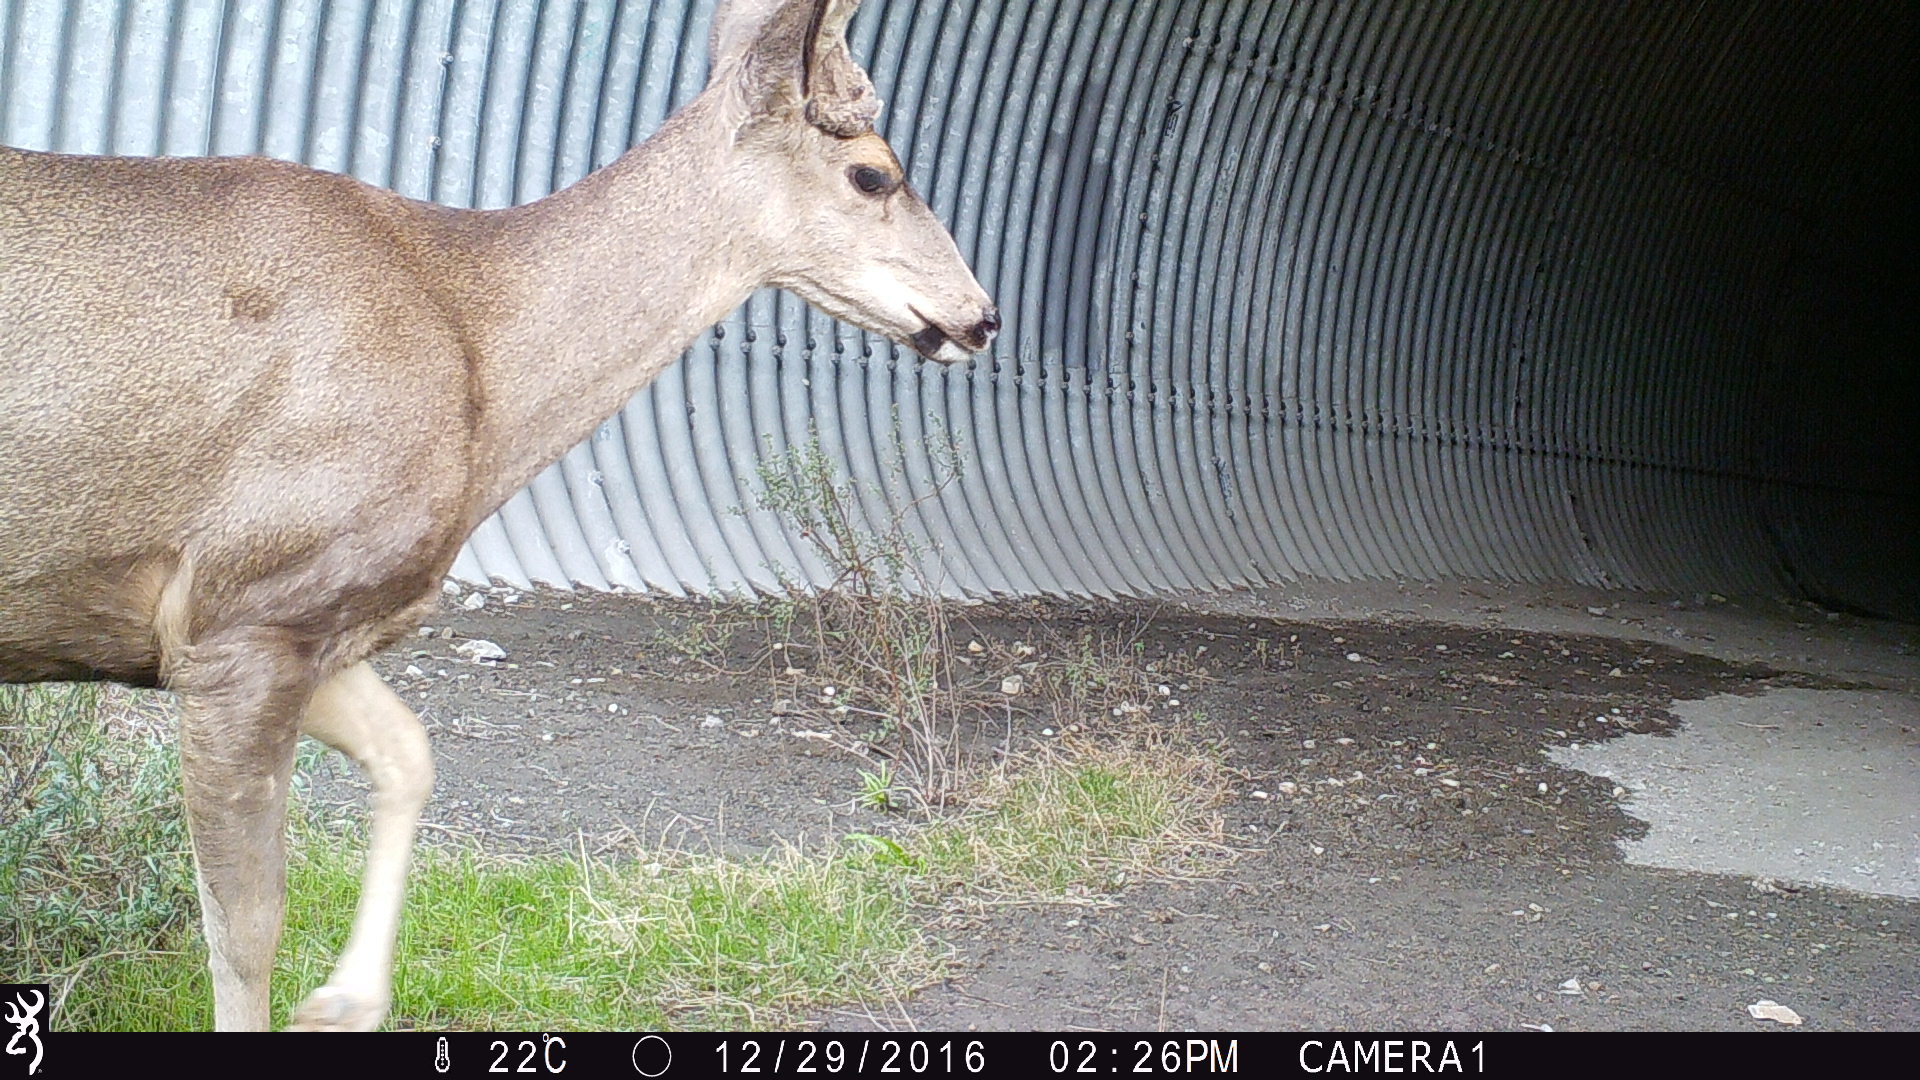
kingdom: Animalia
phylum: Chordata
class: Mammalia
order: Artiodactyla
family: Cervidae
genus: Odocoileus
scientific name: Odocoileus hemionus
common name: Mule deer
